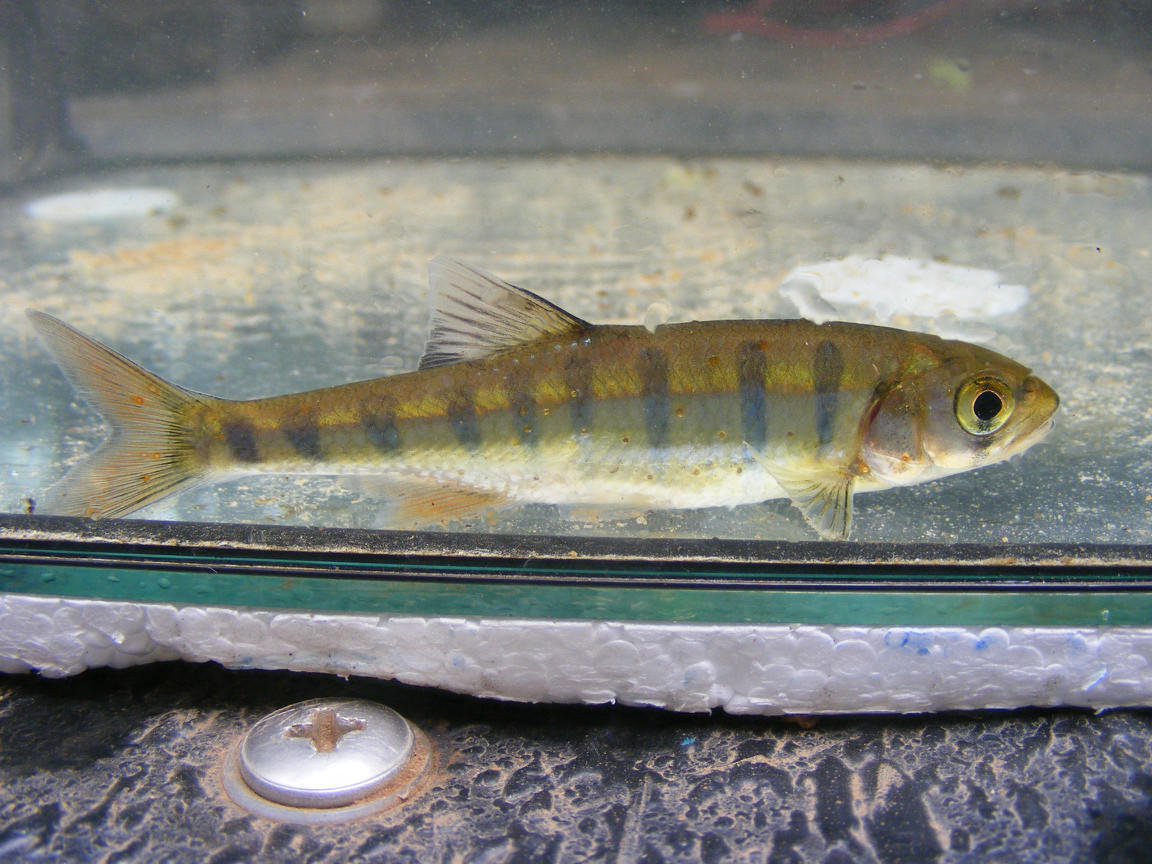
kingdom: Animalia
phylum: Chordata
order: Cypriniformes
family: Cyprinidae
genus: Opsaridium
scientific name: Opsaridium peringueyi
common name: Southern barred minnow
